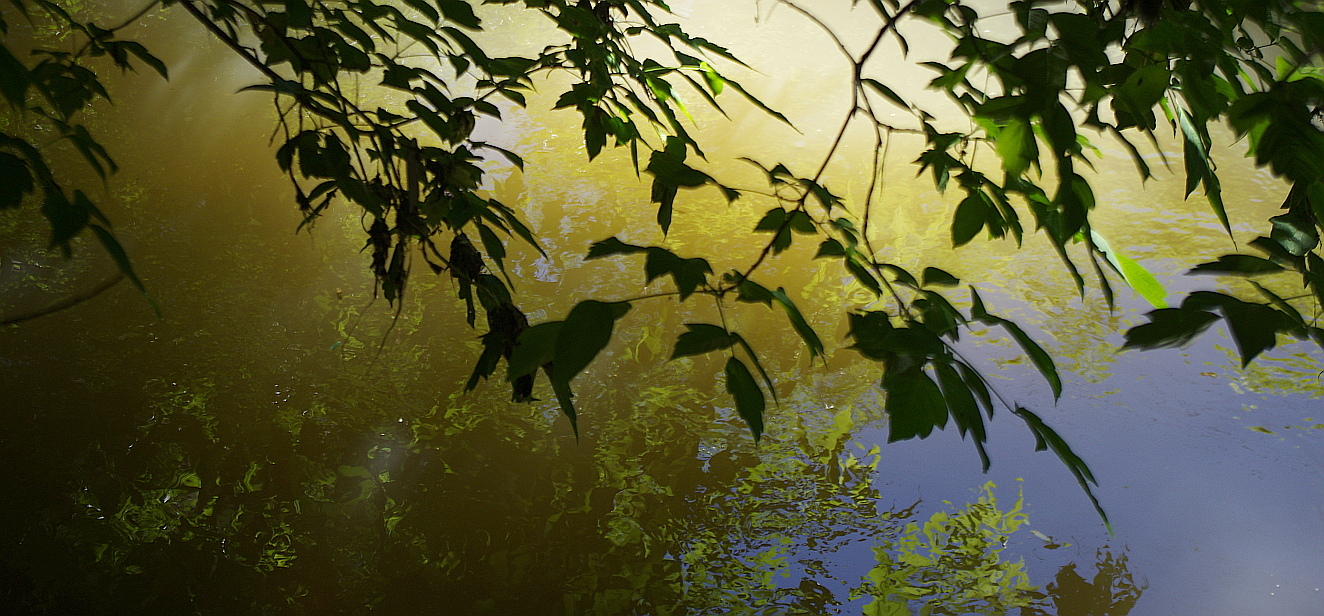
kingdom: Plantae
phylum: Tracheophyta
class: Magnoliopsida
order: Sapindales
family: Sapindaceae
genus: Acer
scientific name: Acer negundo
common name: Ashleaf maple
